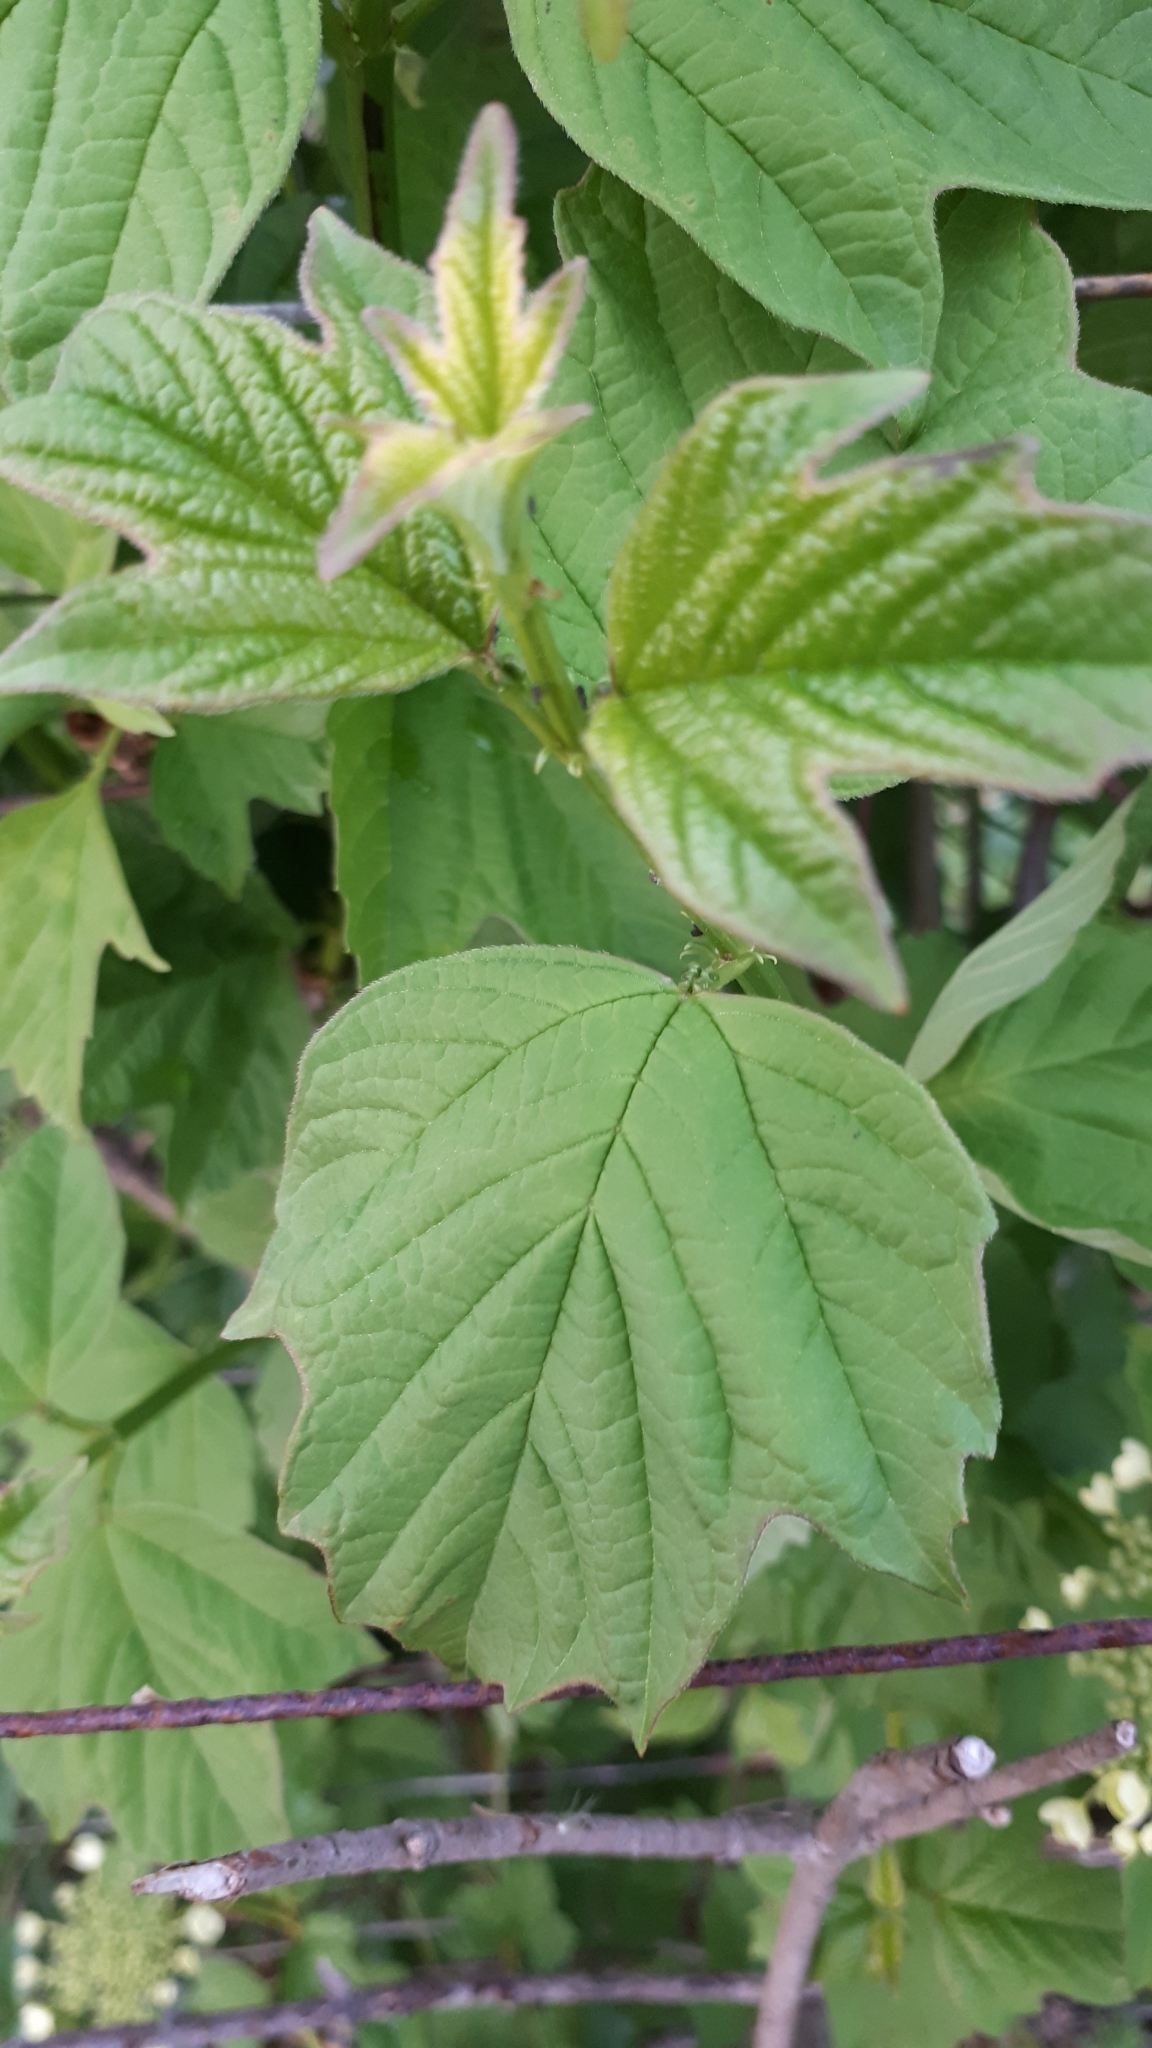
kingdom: Plantae
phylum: Tracheophyta
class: Magnoliopsida
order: Dipsacales
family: Viburnaceae
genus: Viburnum
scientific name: Viburnum opulus
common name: Guelder-rose
